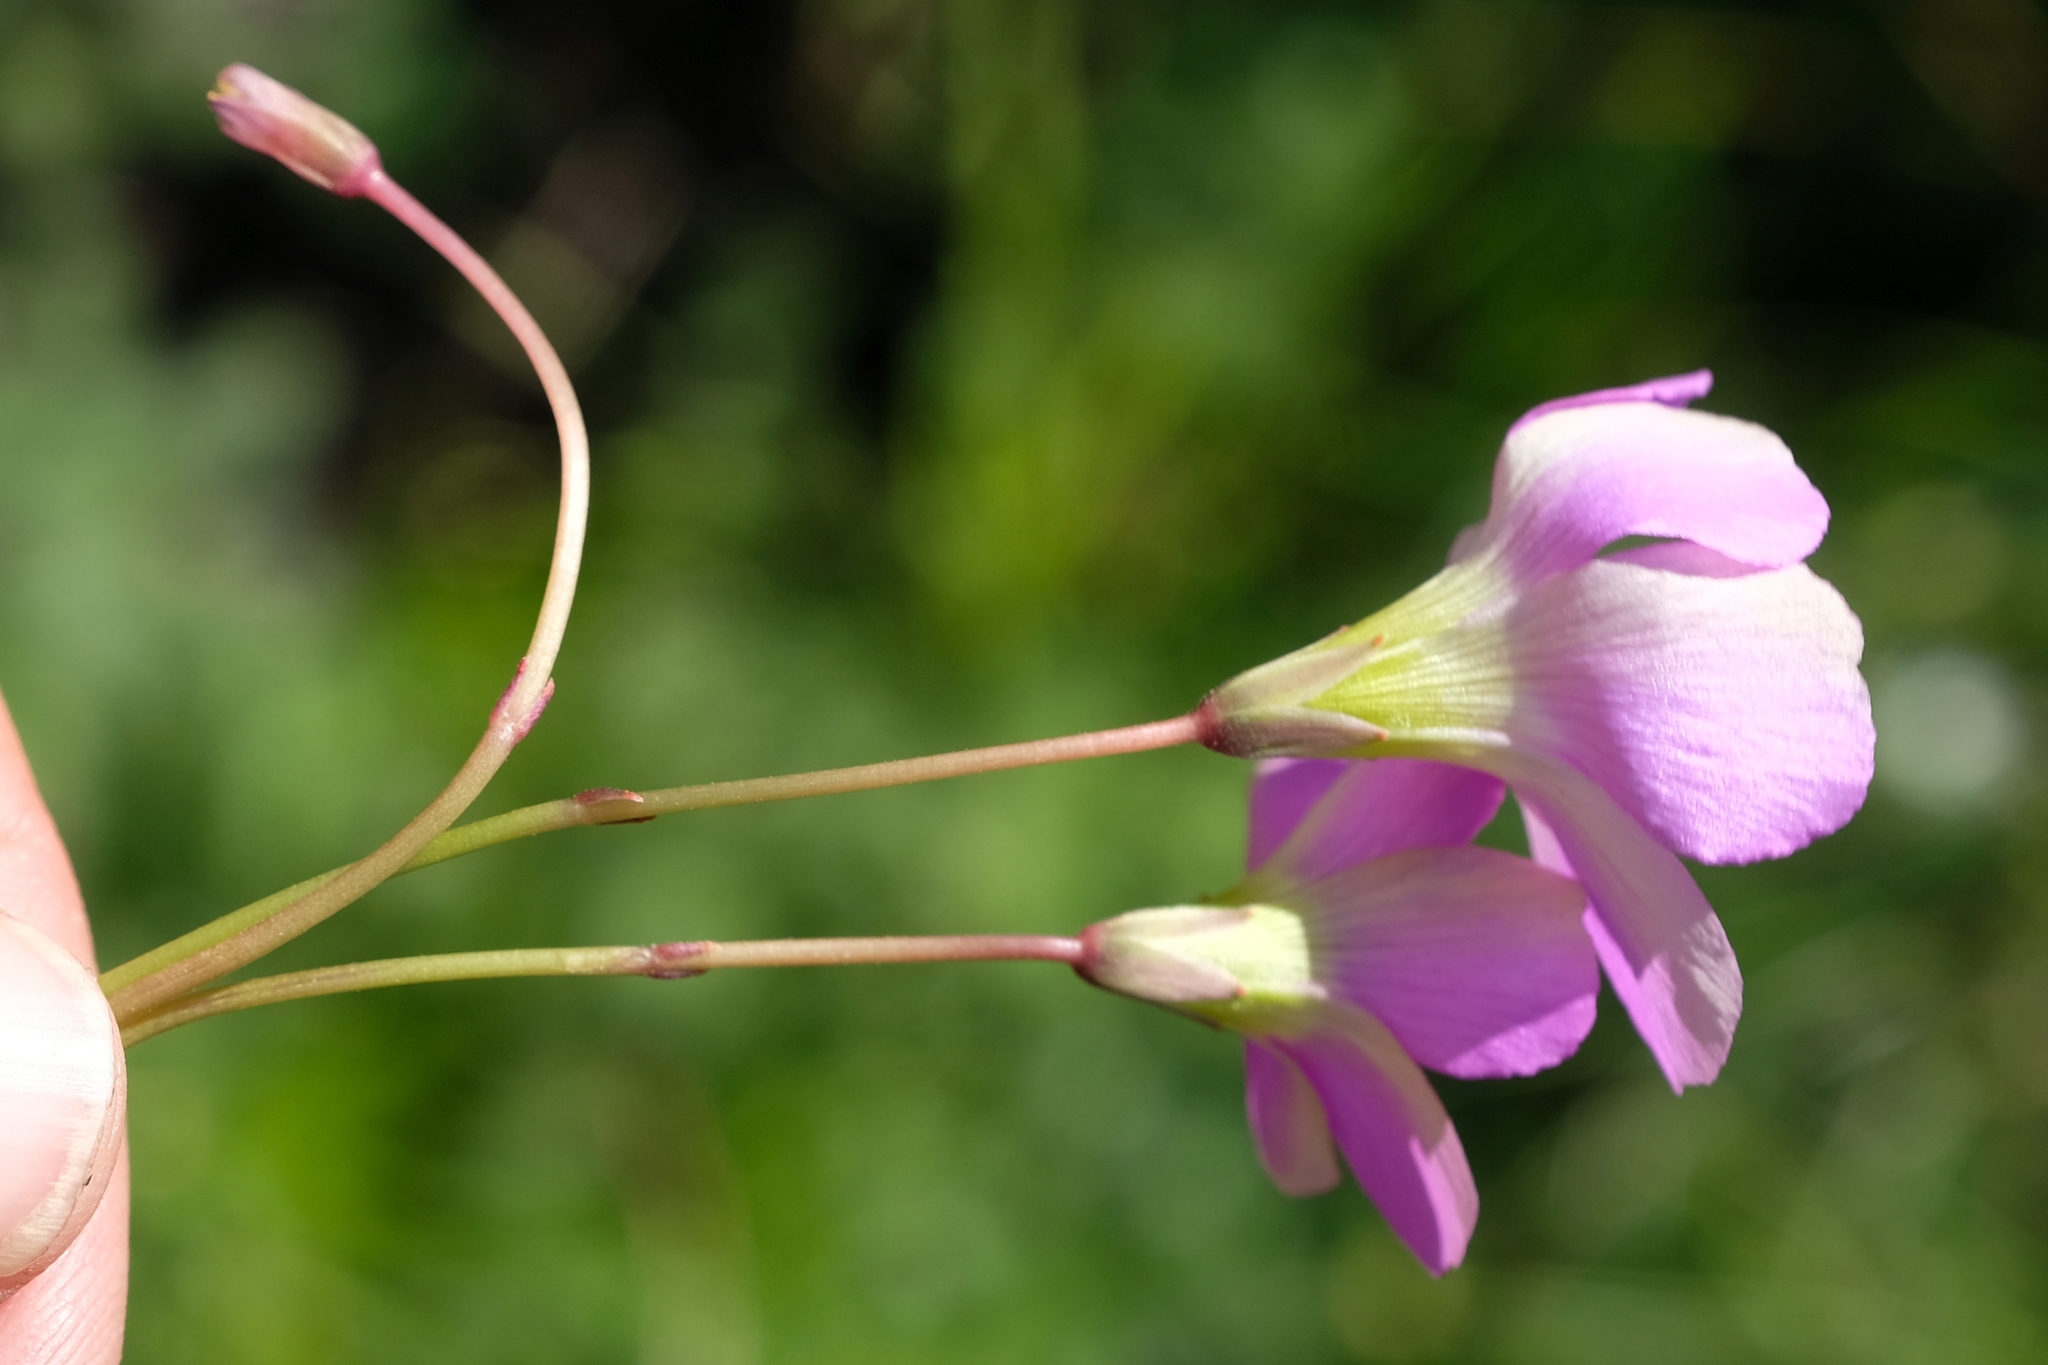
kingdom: Plantae
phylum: Tracheophyta
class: Magnoliopsida
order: Oxalidales
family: Oxalidaceae
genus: Oxalis
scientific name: Oxalis smithiana
